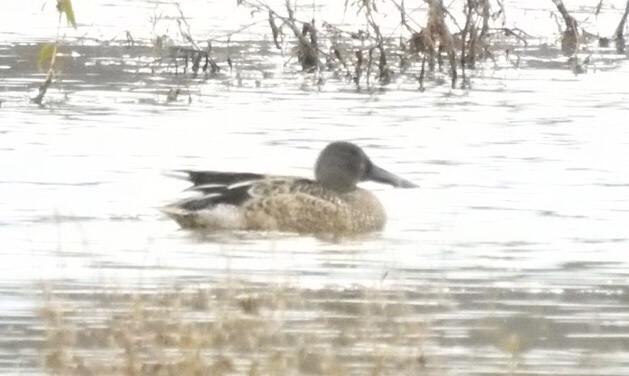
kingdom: Animalia
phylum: Chordata
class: Aves
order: Anseriformes
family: Anatidae
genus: Spatula
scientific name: Spatula clypeata
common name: Northern shoveler
